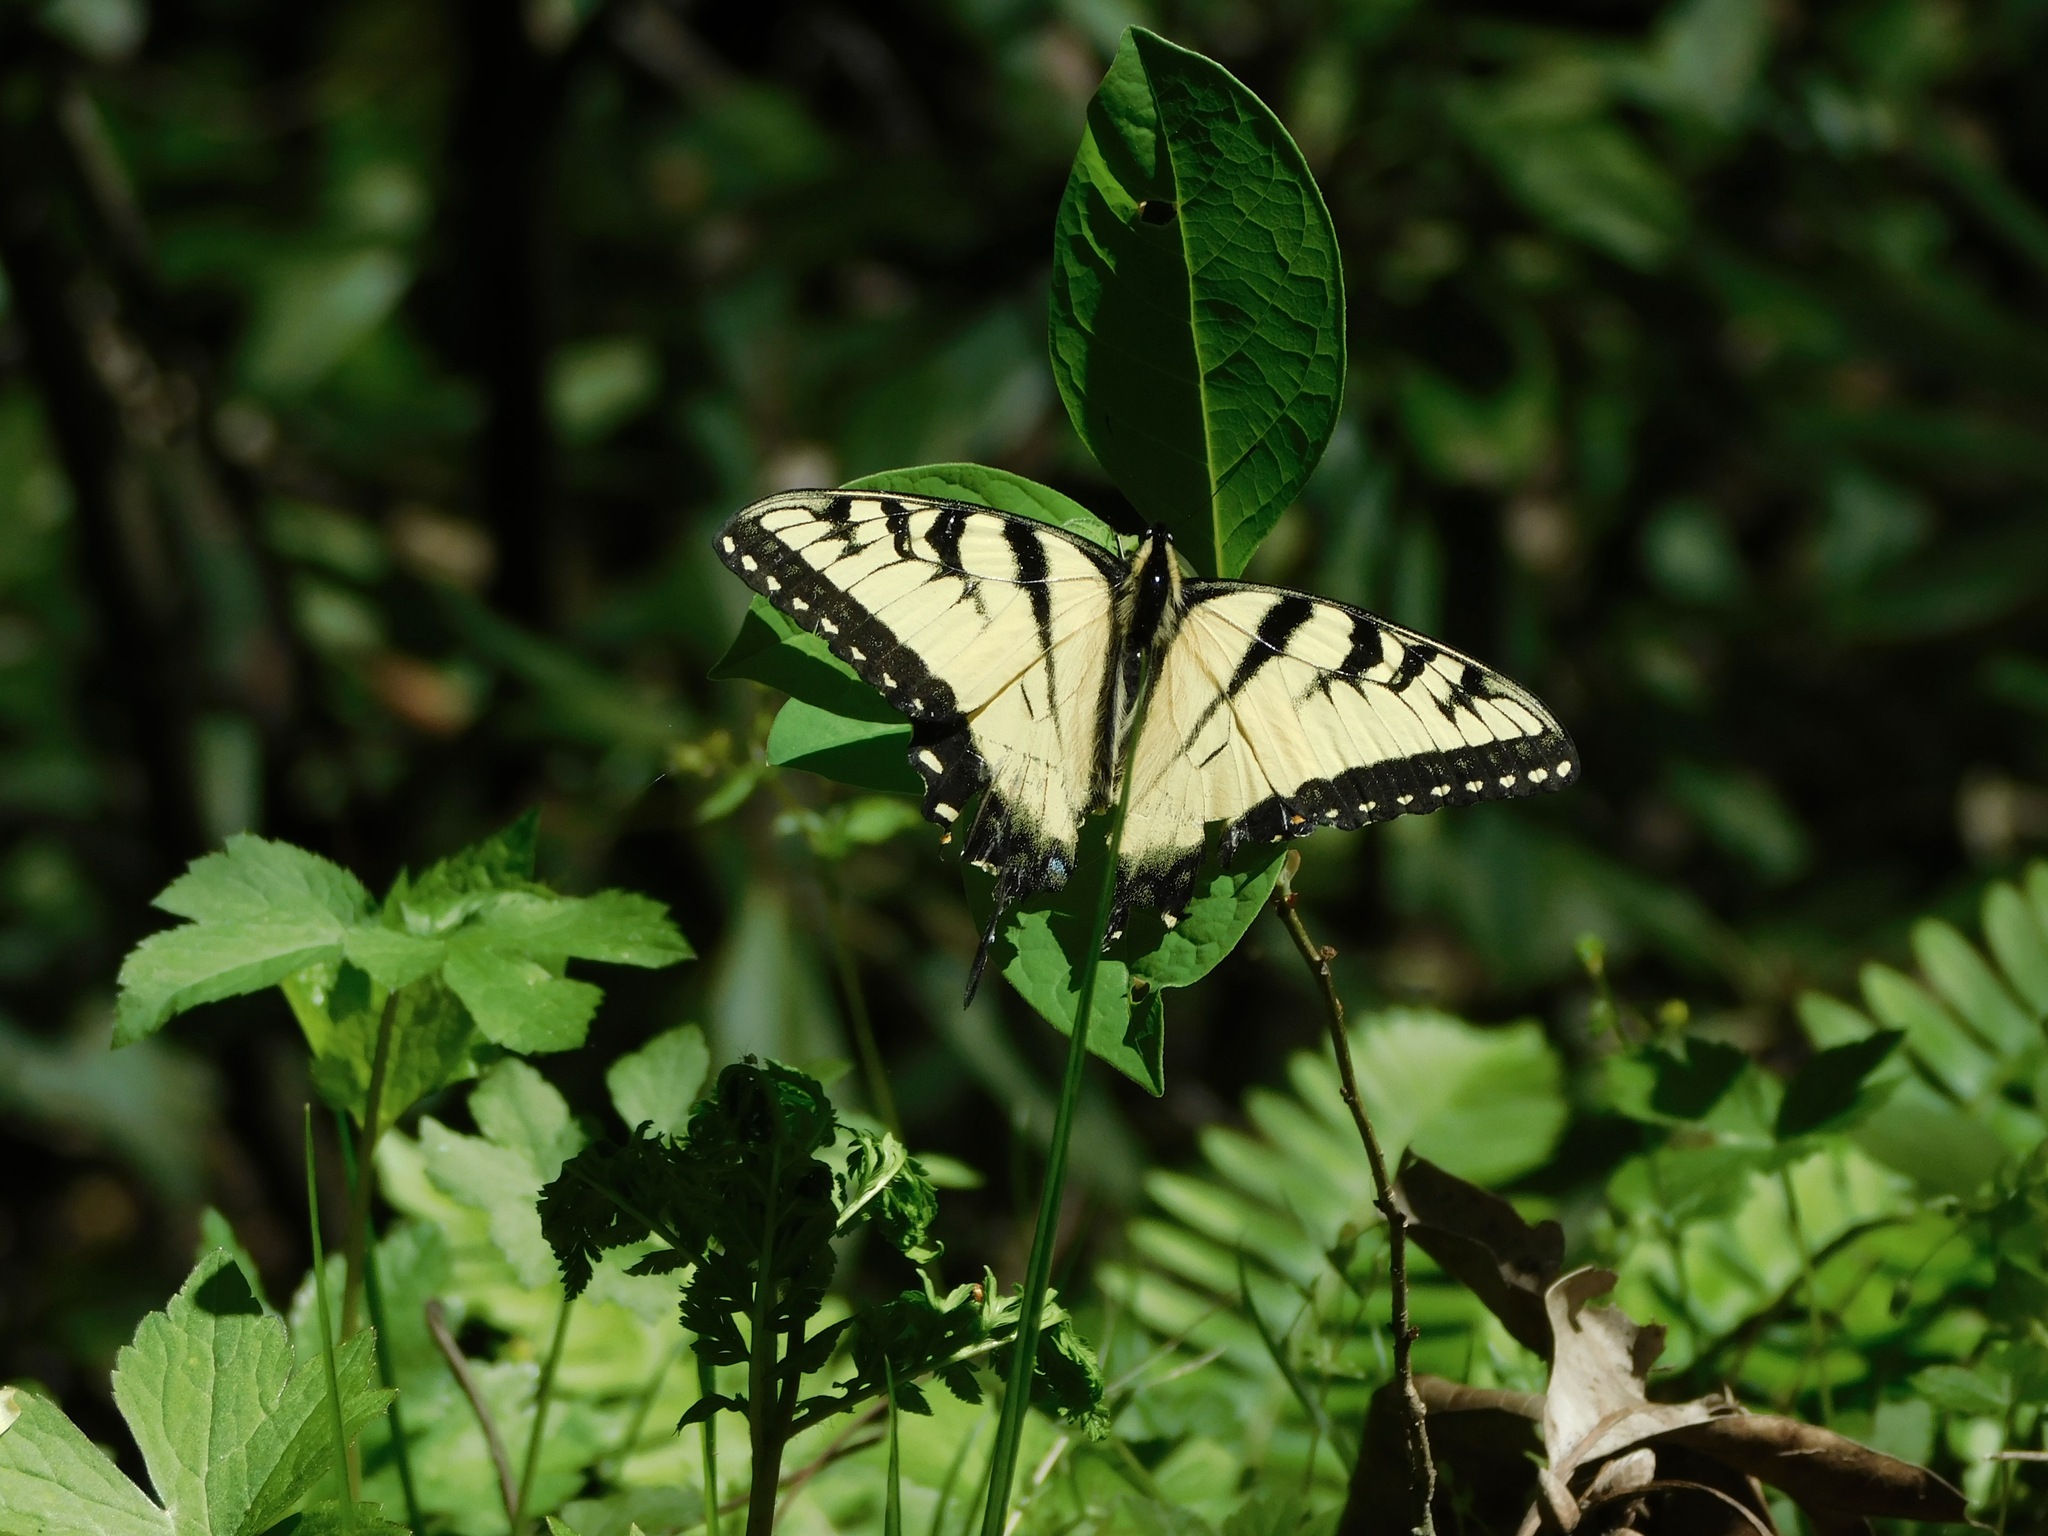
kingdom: Animalia
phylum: Arthropoda
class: Insecta
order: Lepidoptera
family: Papilionidae
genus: Papilio
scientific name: Papilio glaucus
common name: Tiger swallowtail
